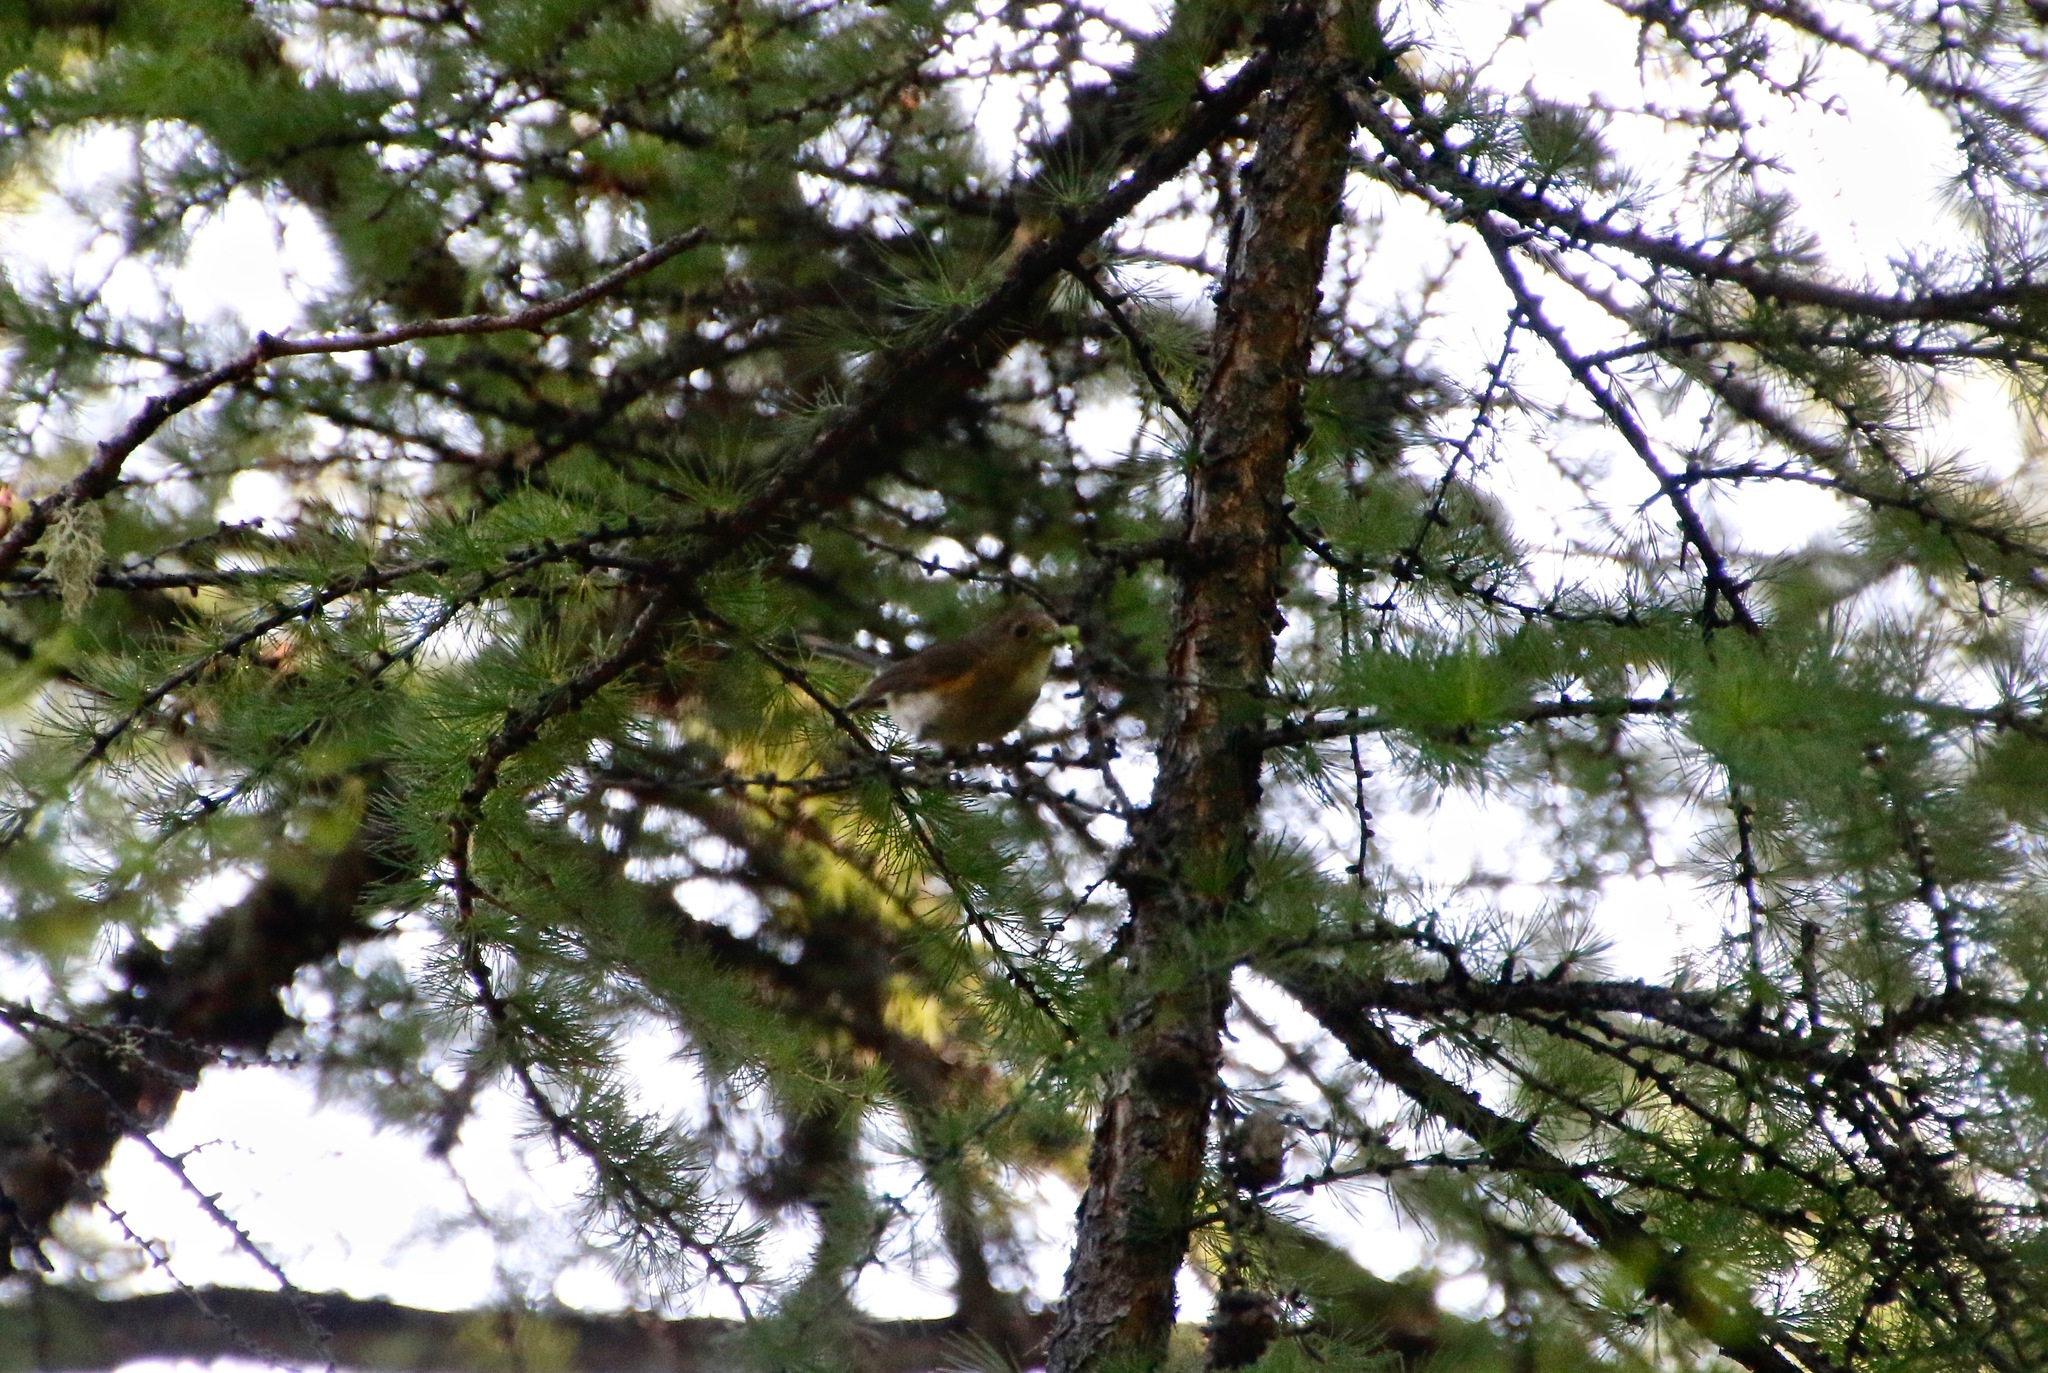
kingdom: Animalia
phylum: Chordata
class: Aves
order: Passeriformes
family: Muscicapidae
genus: Tarsiger
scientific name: Tarsiger cyanurus
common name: Red-flanked bluetail
